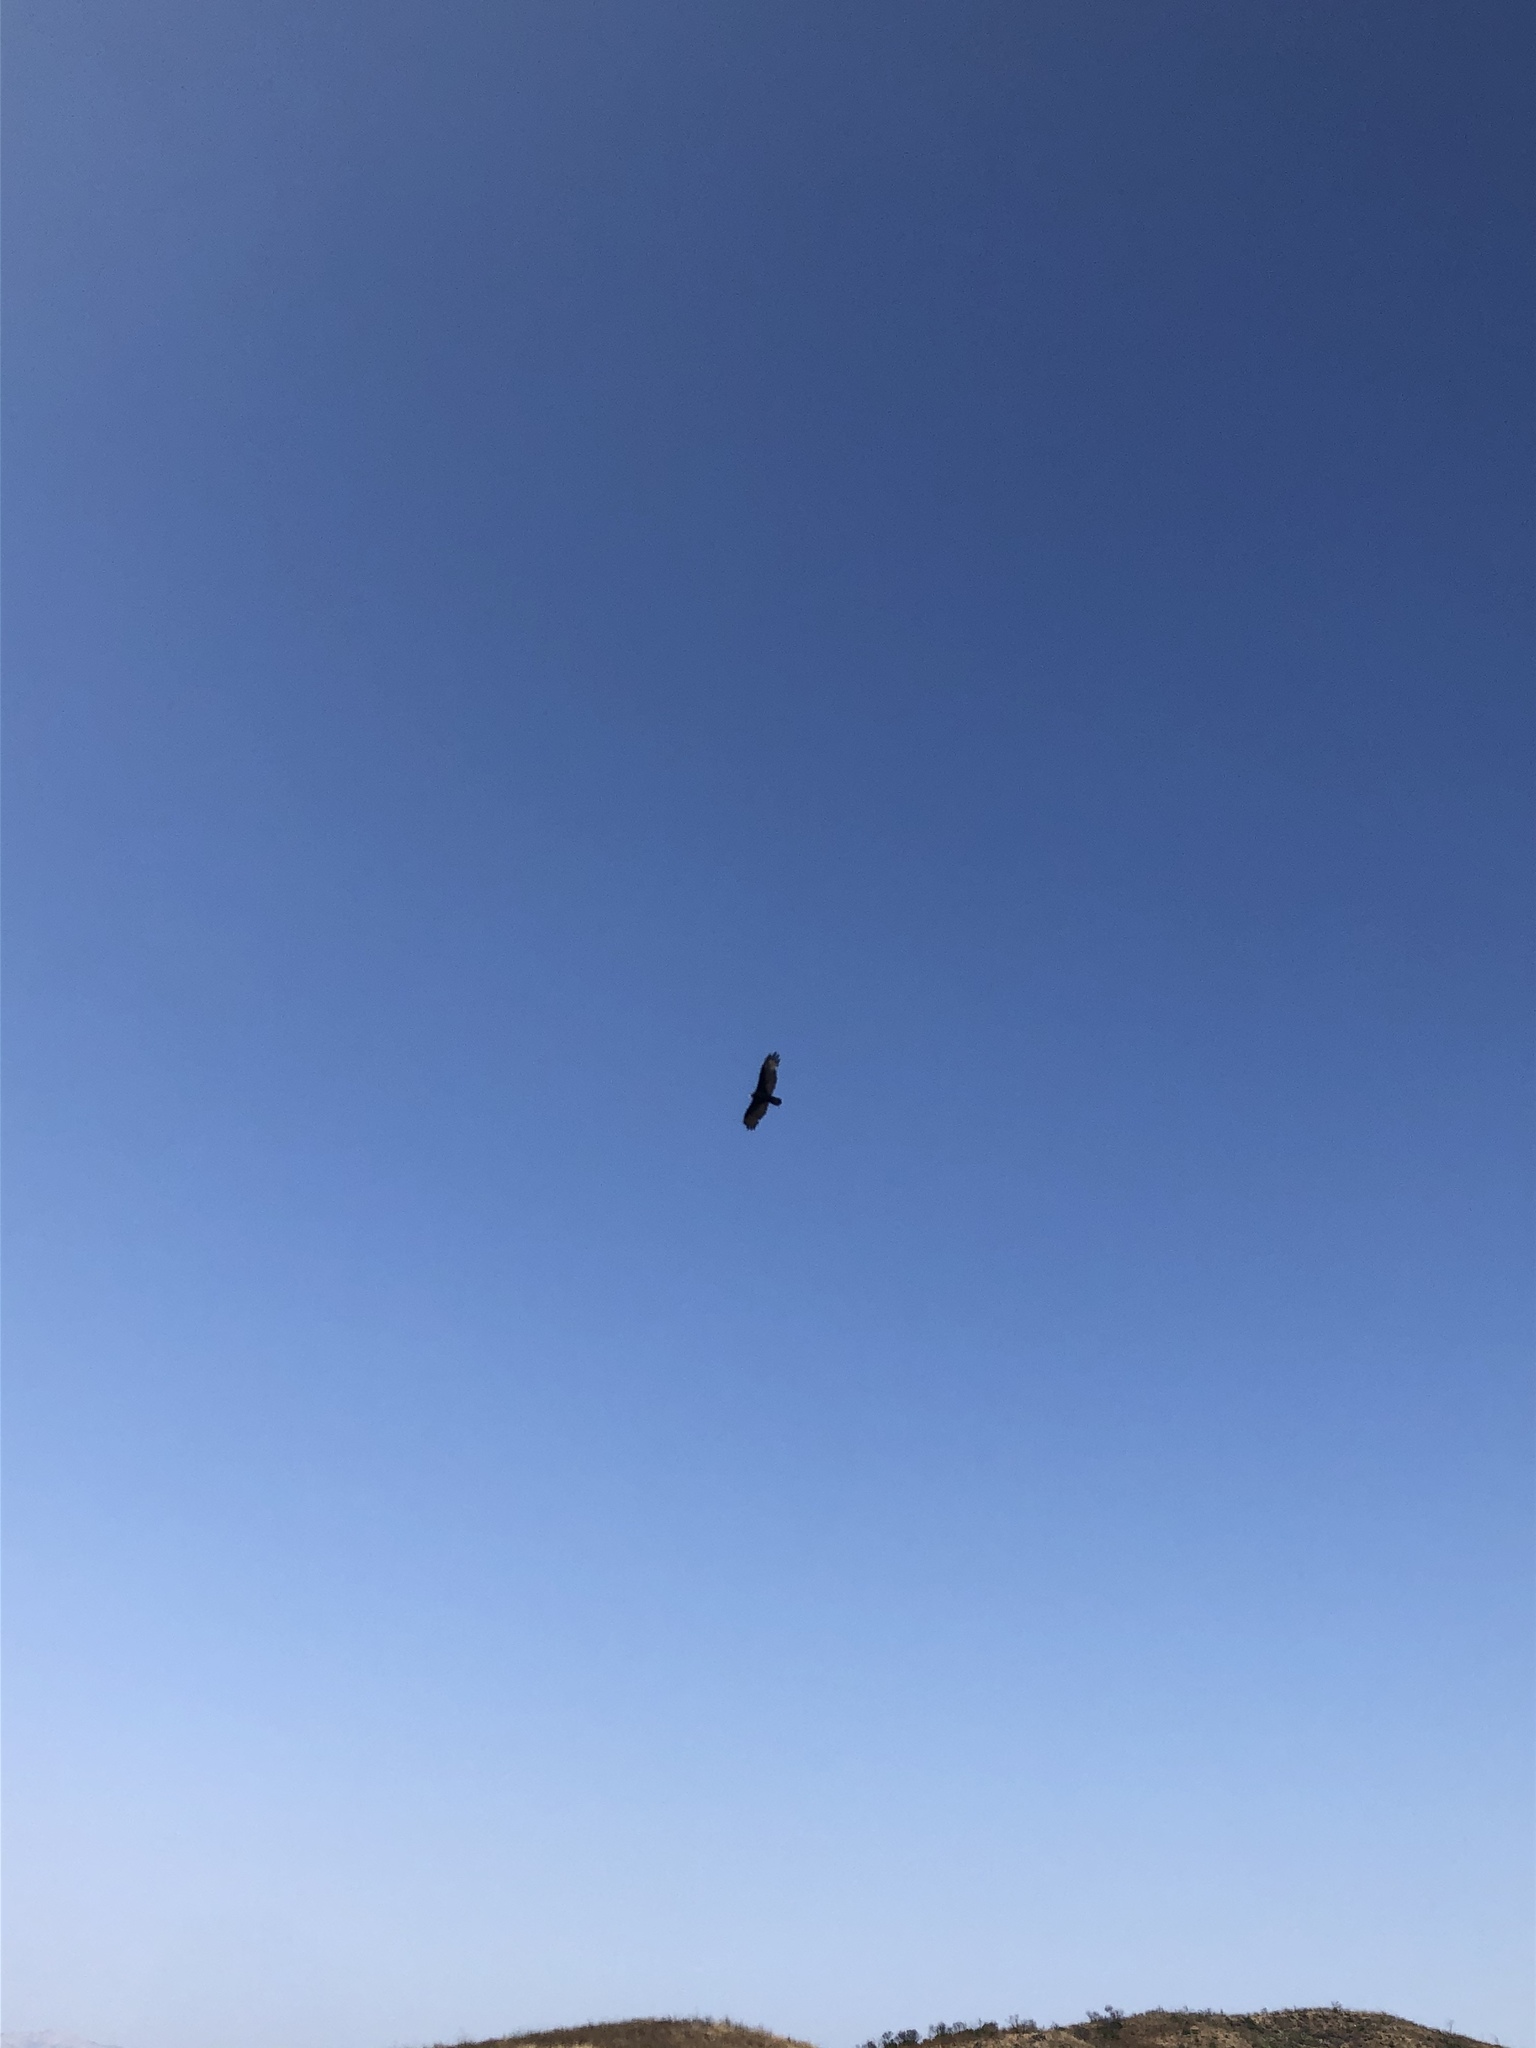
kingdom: Animalia
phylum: Chordata
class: Aves
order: Accipitriformes
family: Cathartidae
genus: Cathartes
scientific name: Cathartes aura
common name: Turkey vulture
